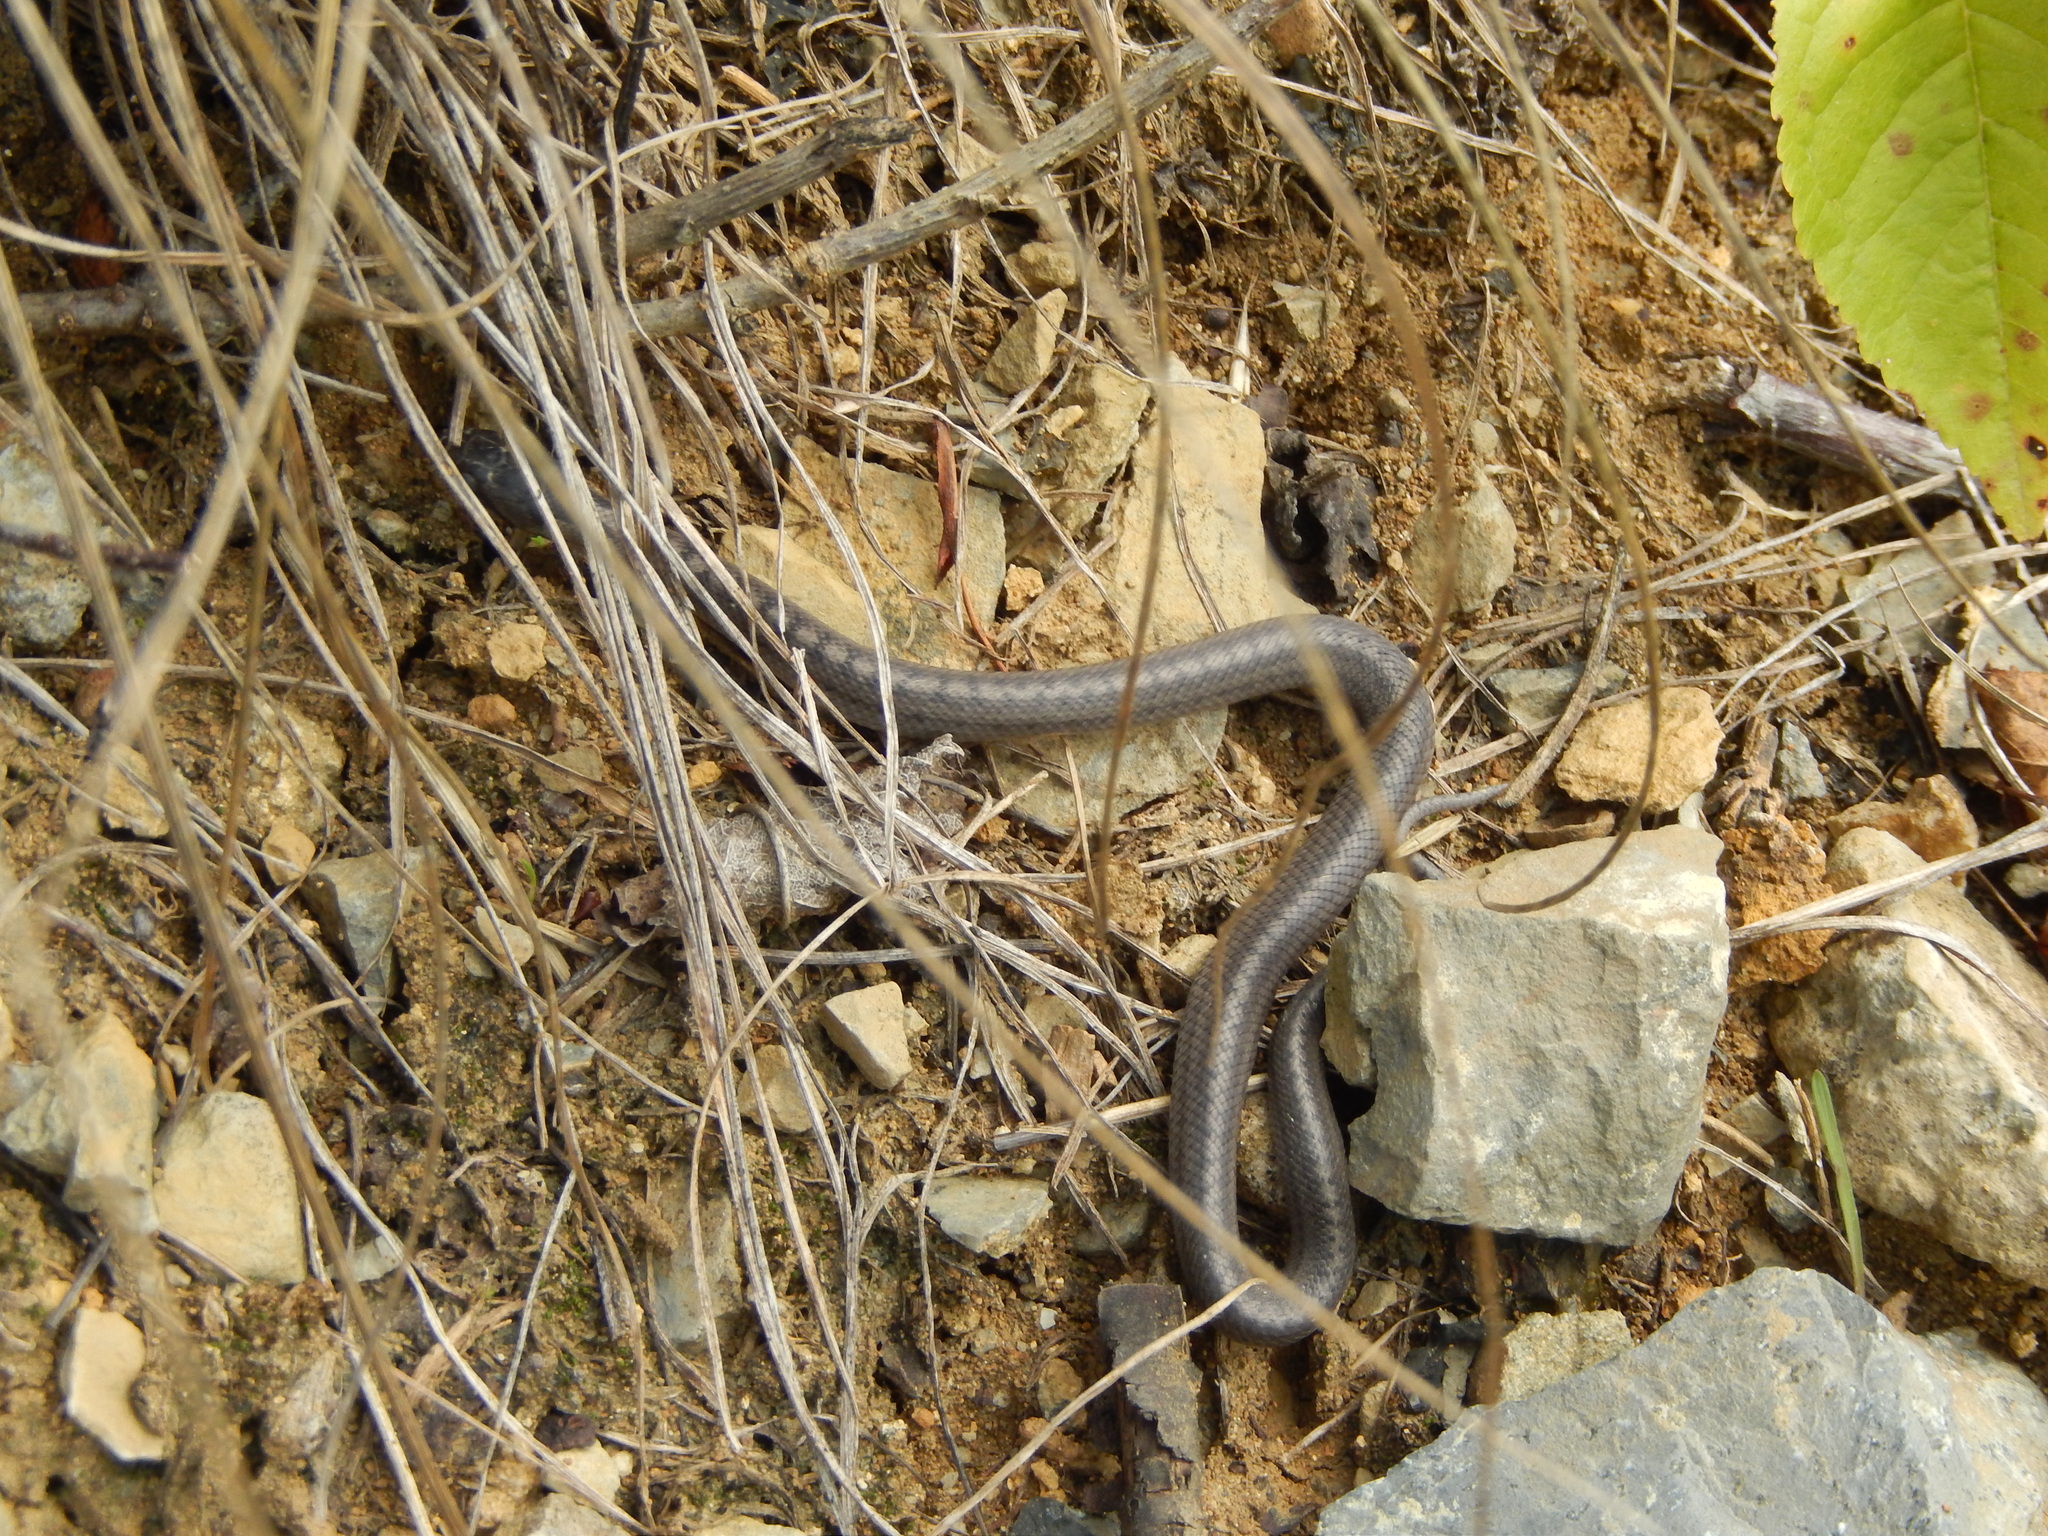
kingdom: Animalia
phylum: Chordata
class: Squamata
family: Colubridae
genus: Coronella
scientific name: Coronella austriaca
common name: Smooth snake
